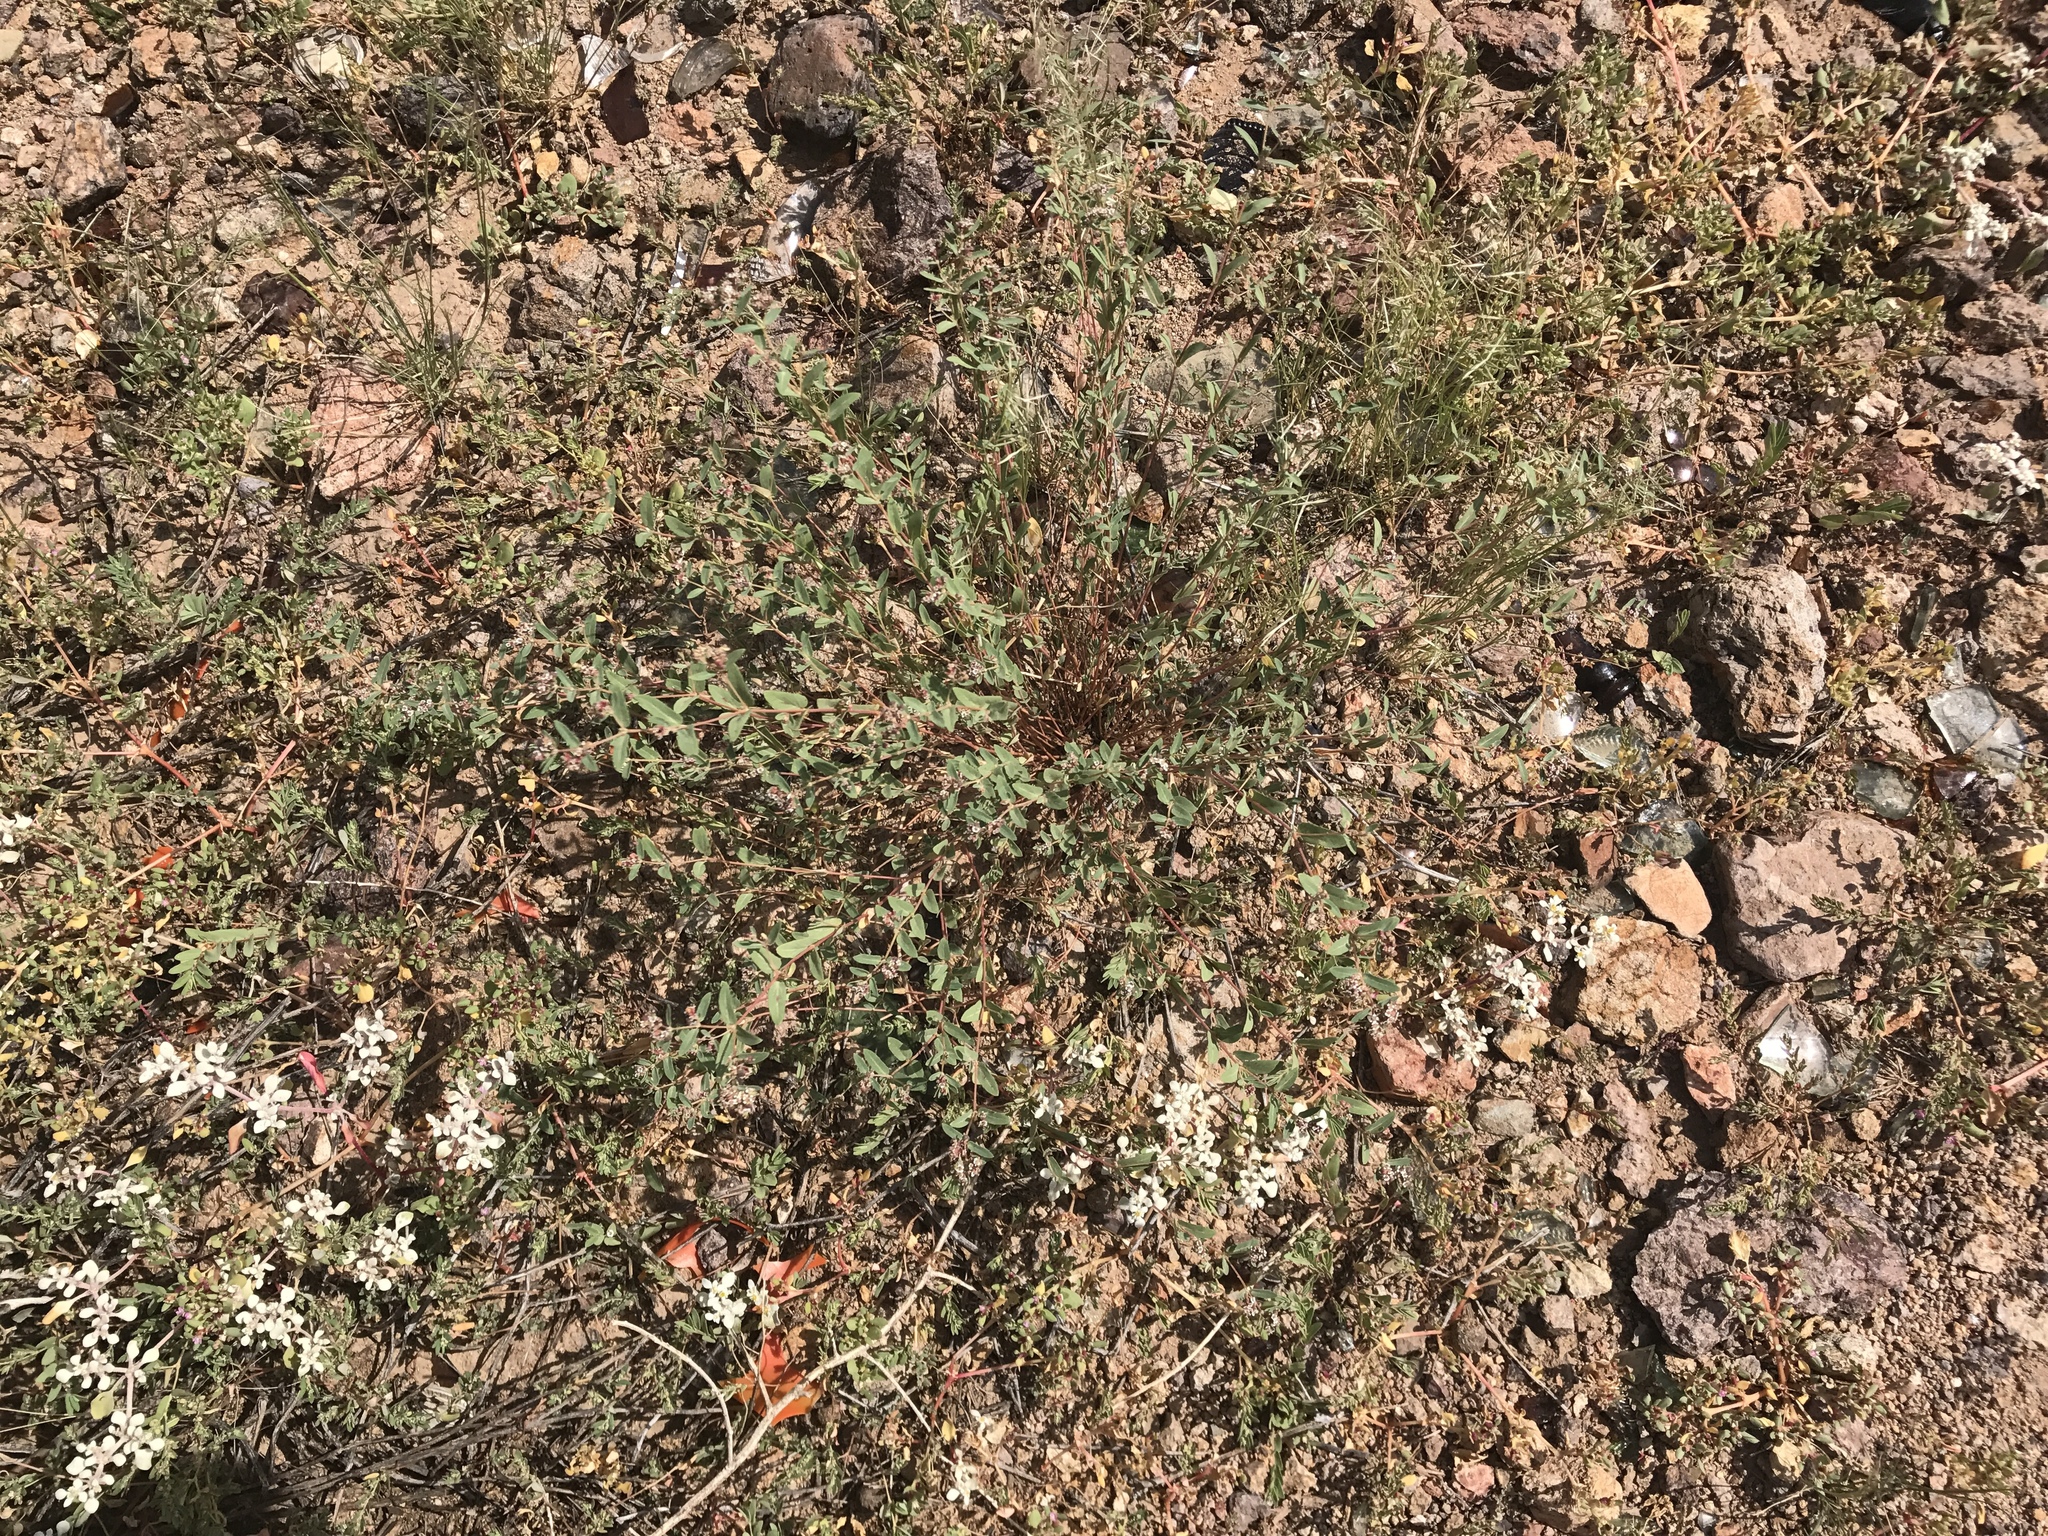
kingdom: Plantae
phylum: Tracheophyta
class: Magnoliopsida
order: Malpighiales
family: Euphorbiaceae
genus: Euphorbia
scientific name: Euphorbia capitellata
